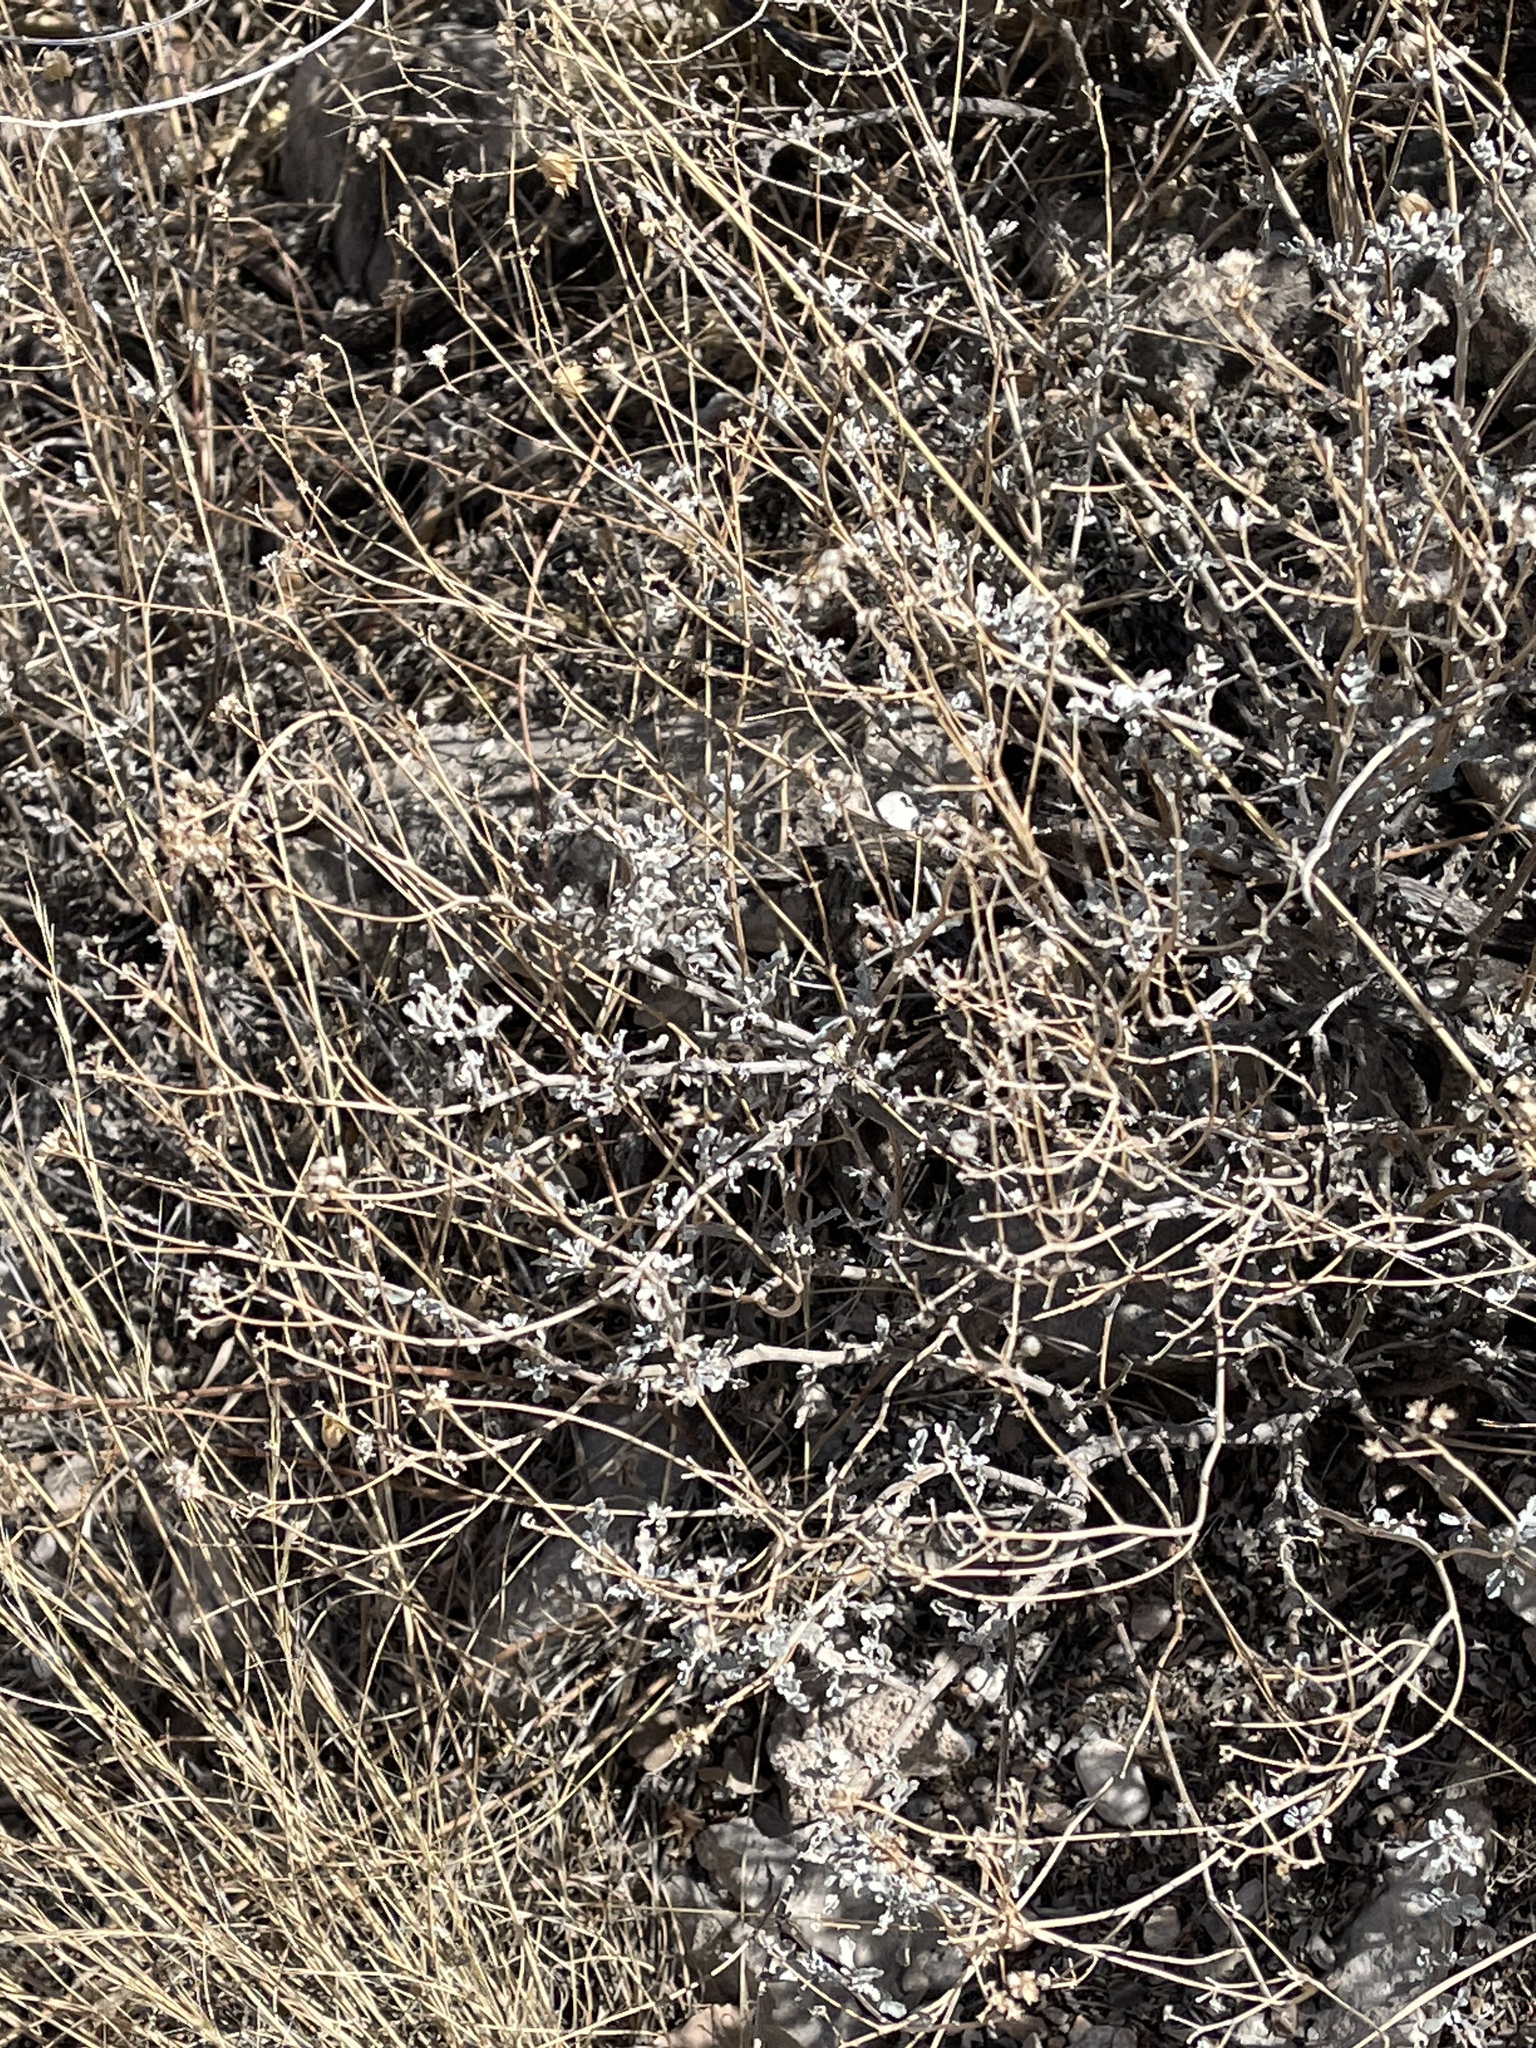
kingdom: Plantae
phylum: Tracheophyta
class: Magnoliopsida
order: Asterales
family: Asteraceae
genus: Parthenium
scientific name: Parthenium incanum
